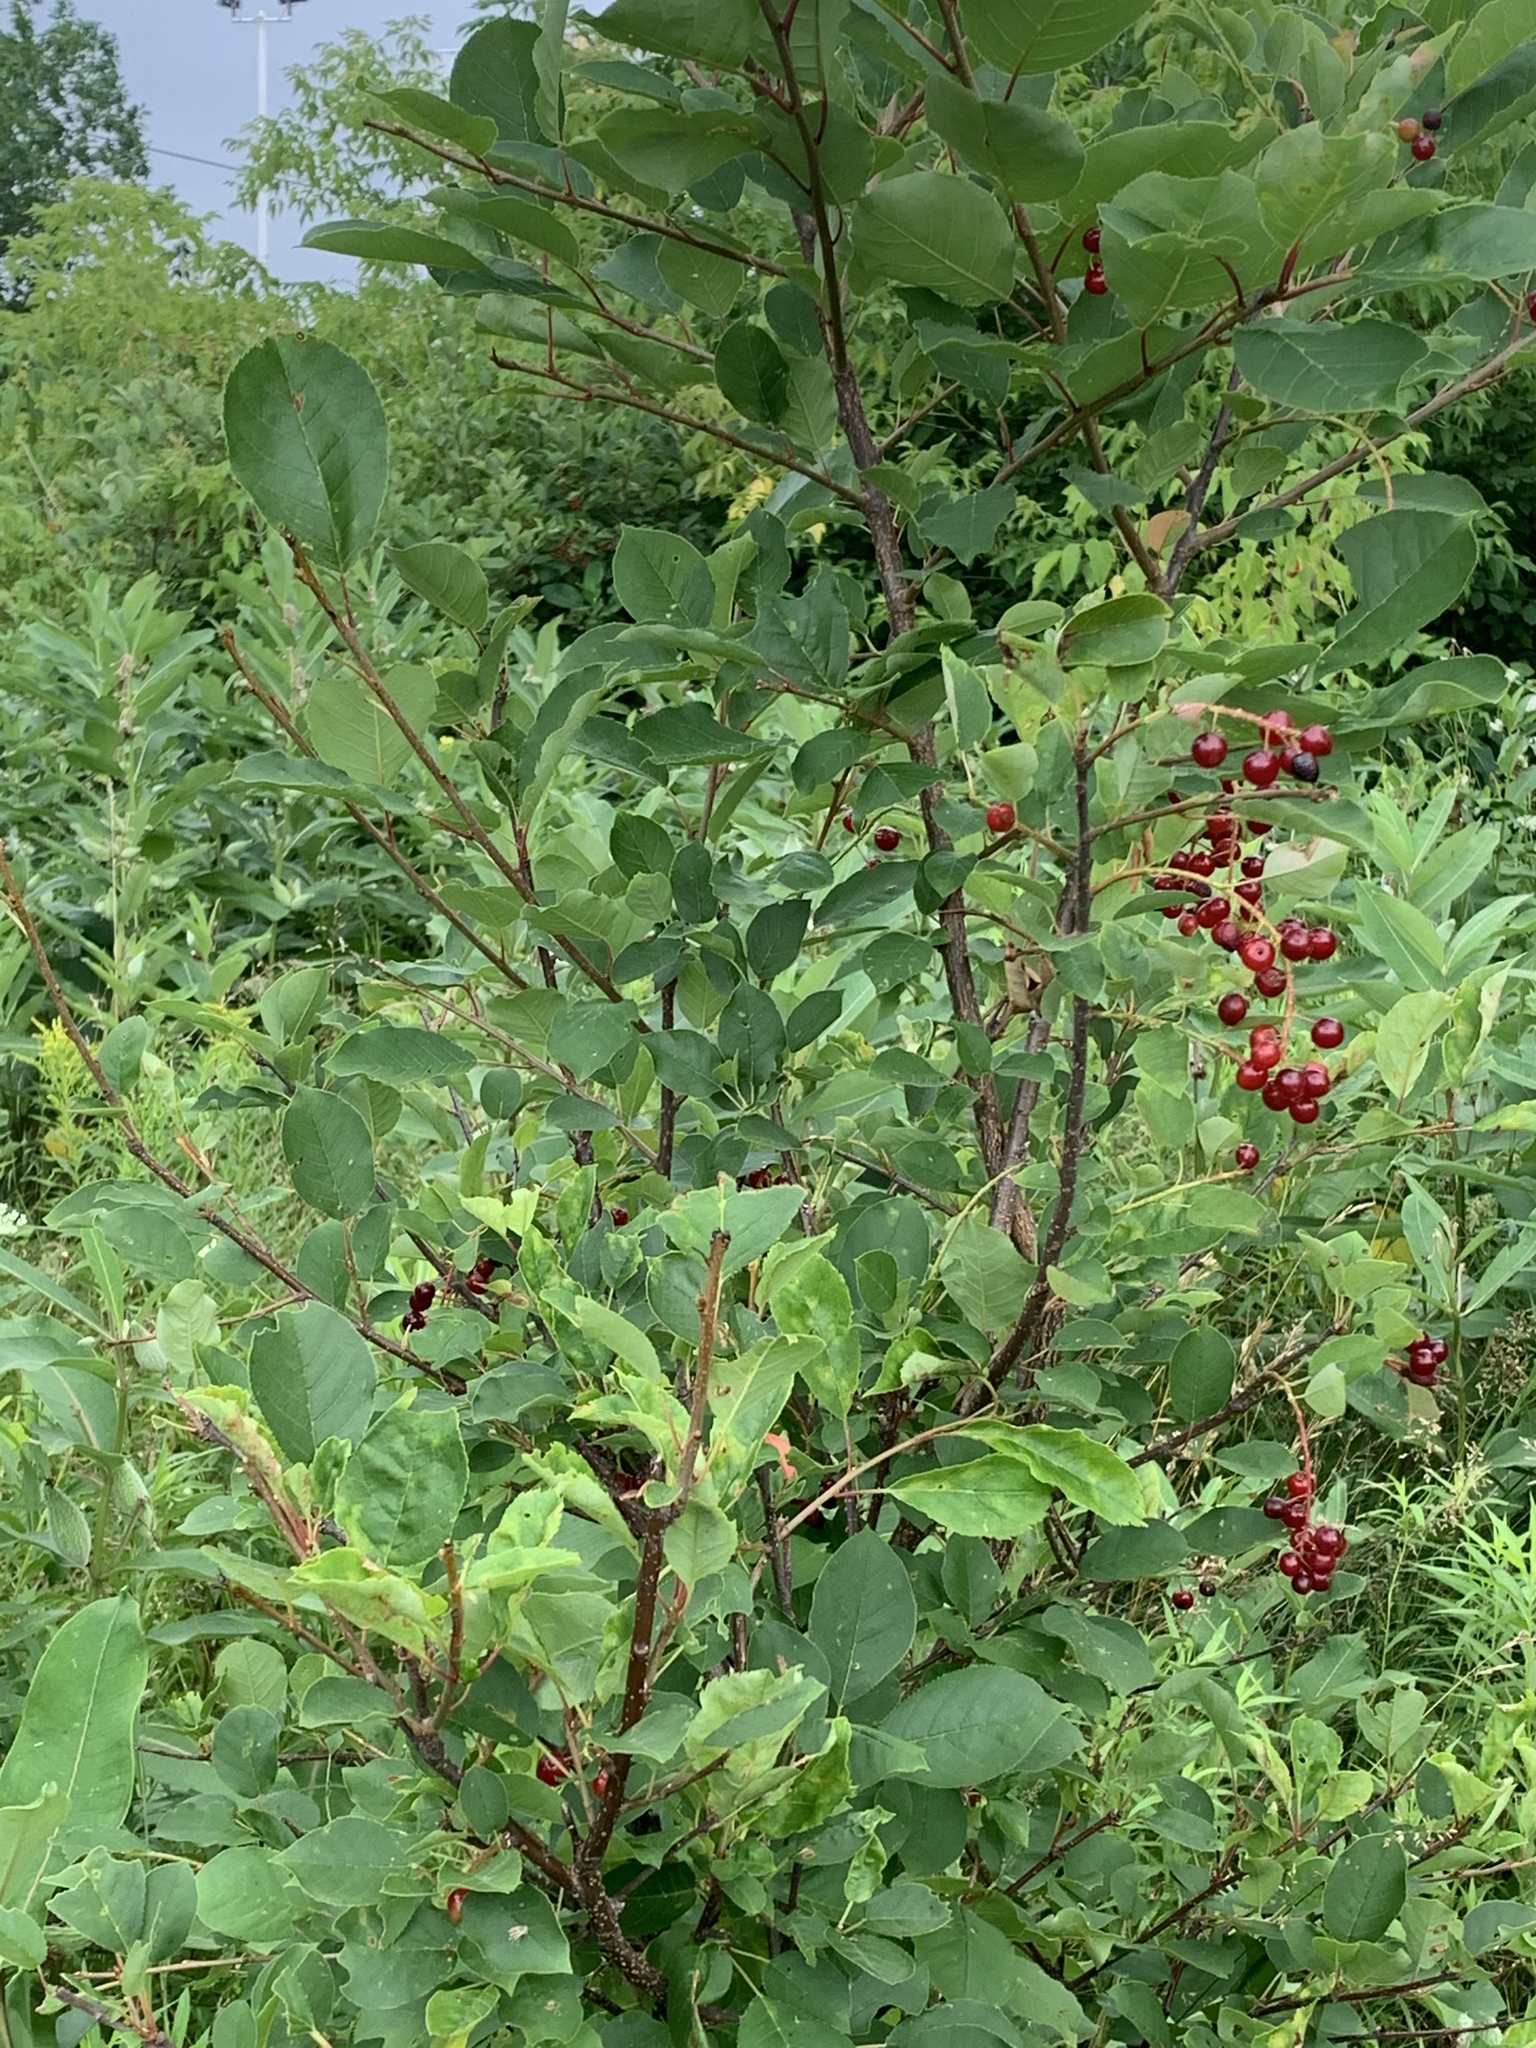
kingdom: Plantae
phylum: Tracheophyta
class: Magnoliopsida
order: Rosales
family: Rosaceae
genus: Prunus
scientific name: Prunus virginiana
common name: Chokecherry
